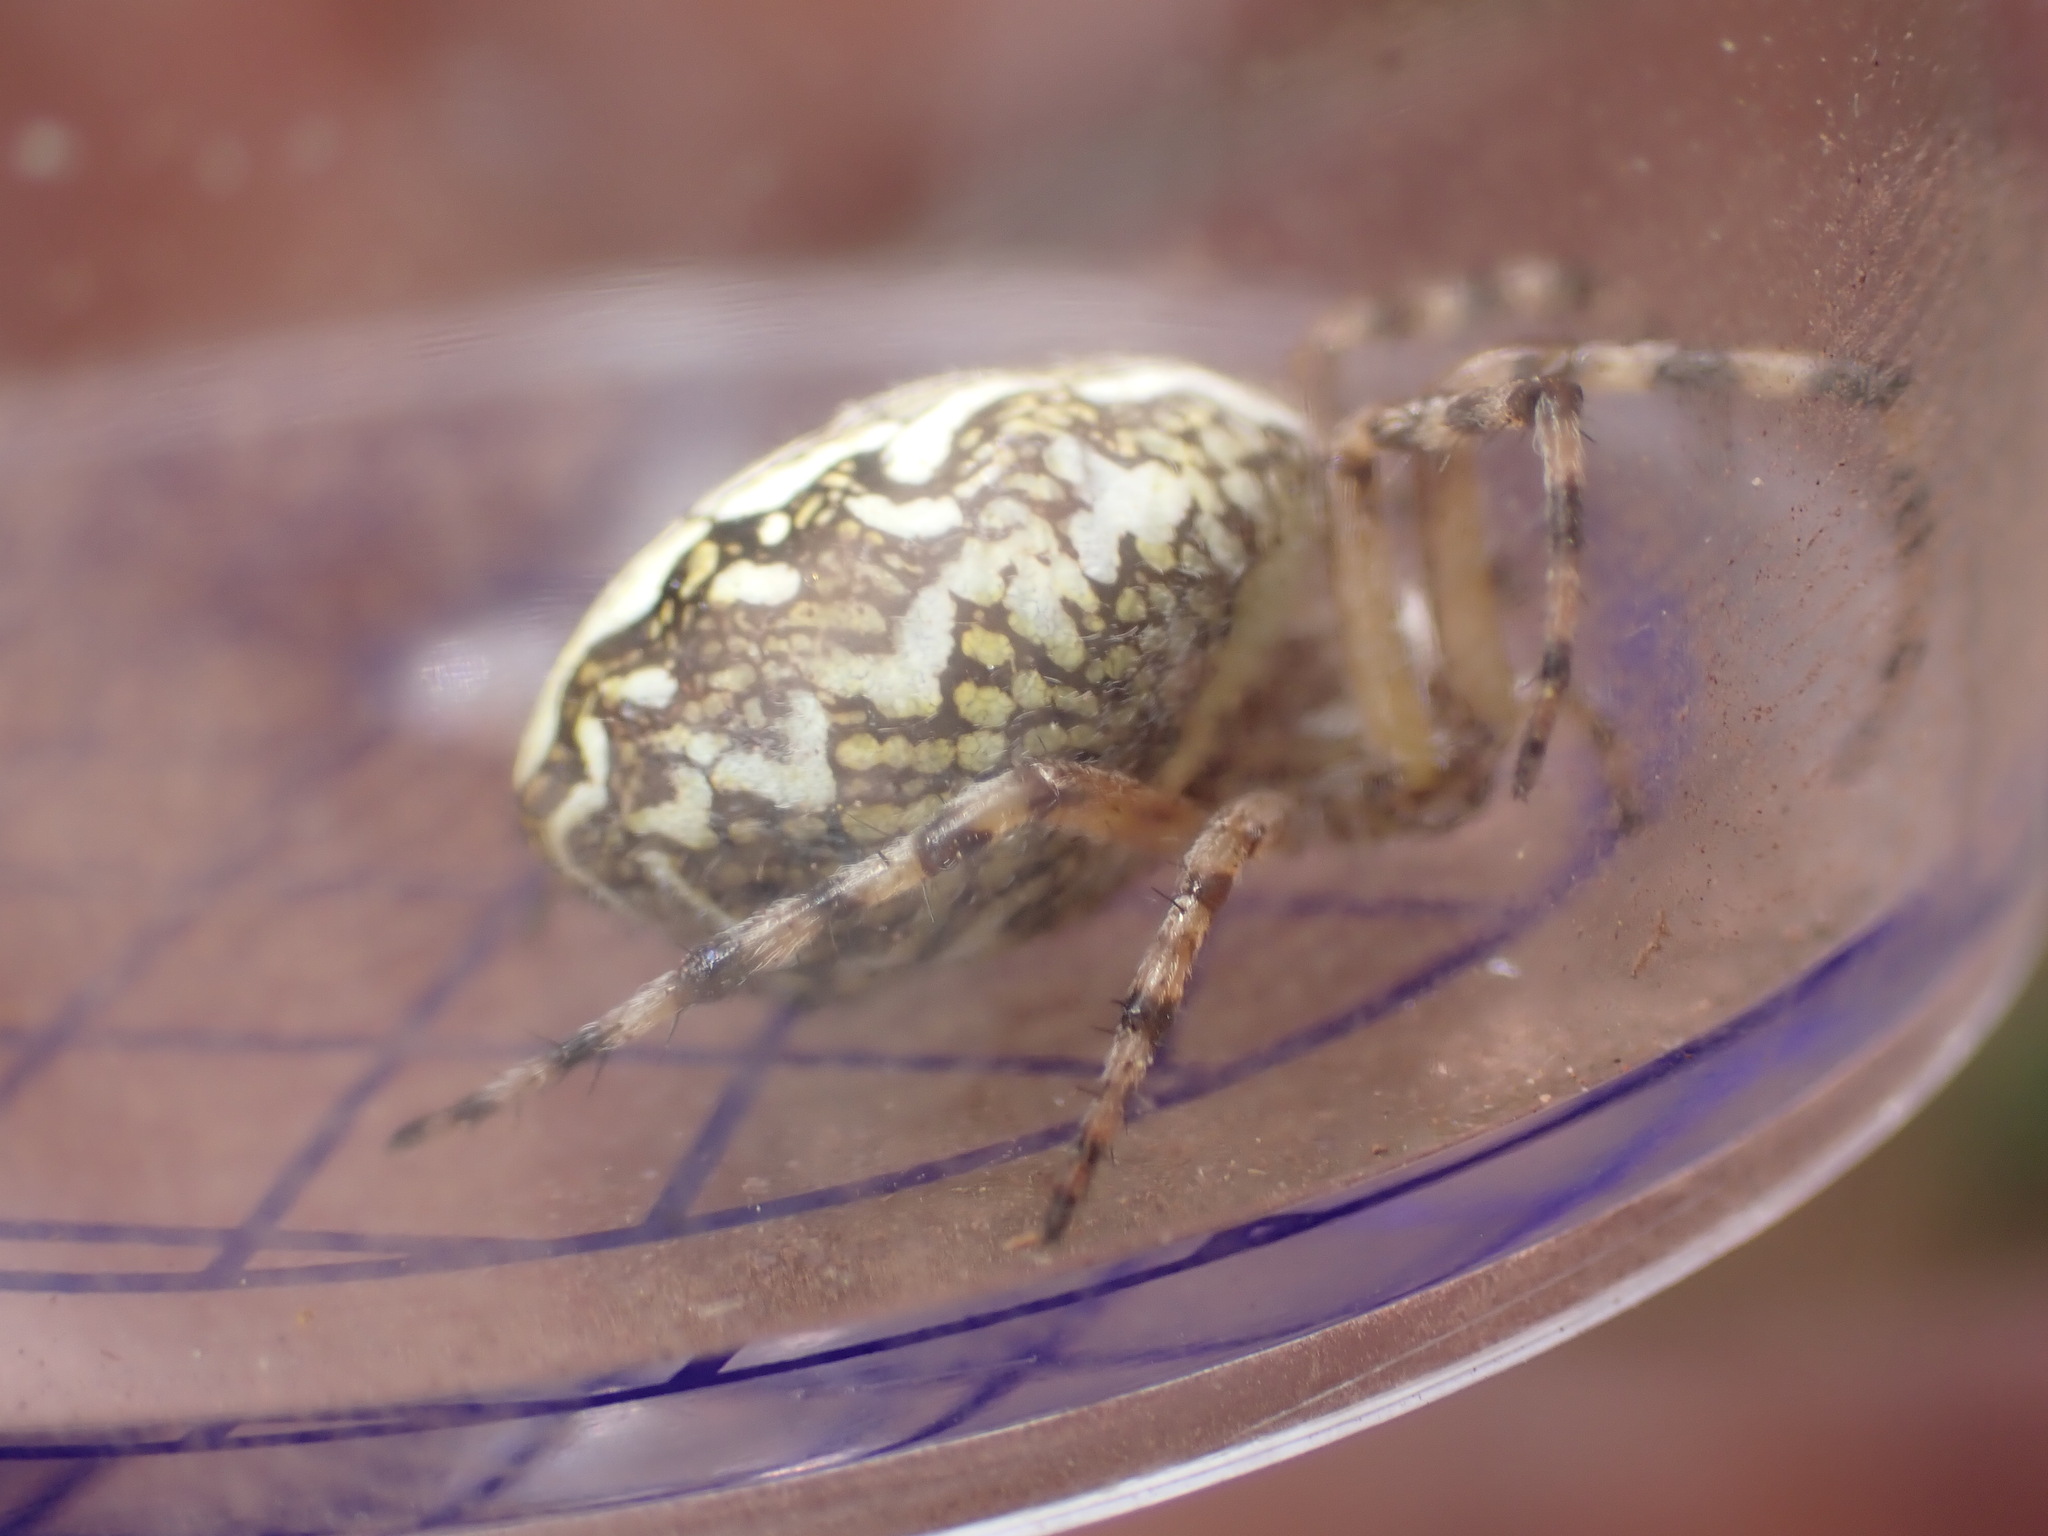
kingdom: Animalia
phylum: Arthropoda
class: Arachnida
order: Araneae
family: Araneidae
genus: Aculepeira
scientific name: Aculepeira ceropegia
